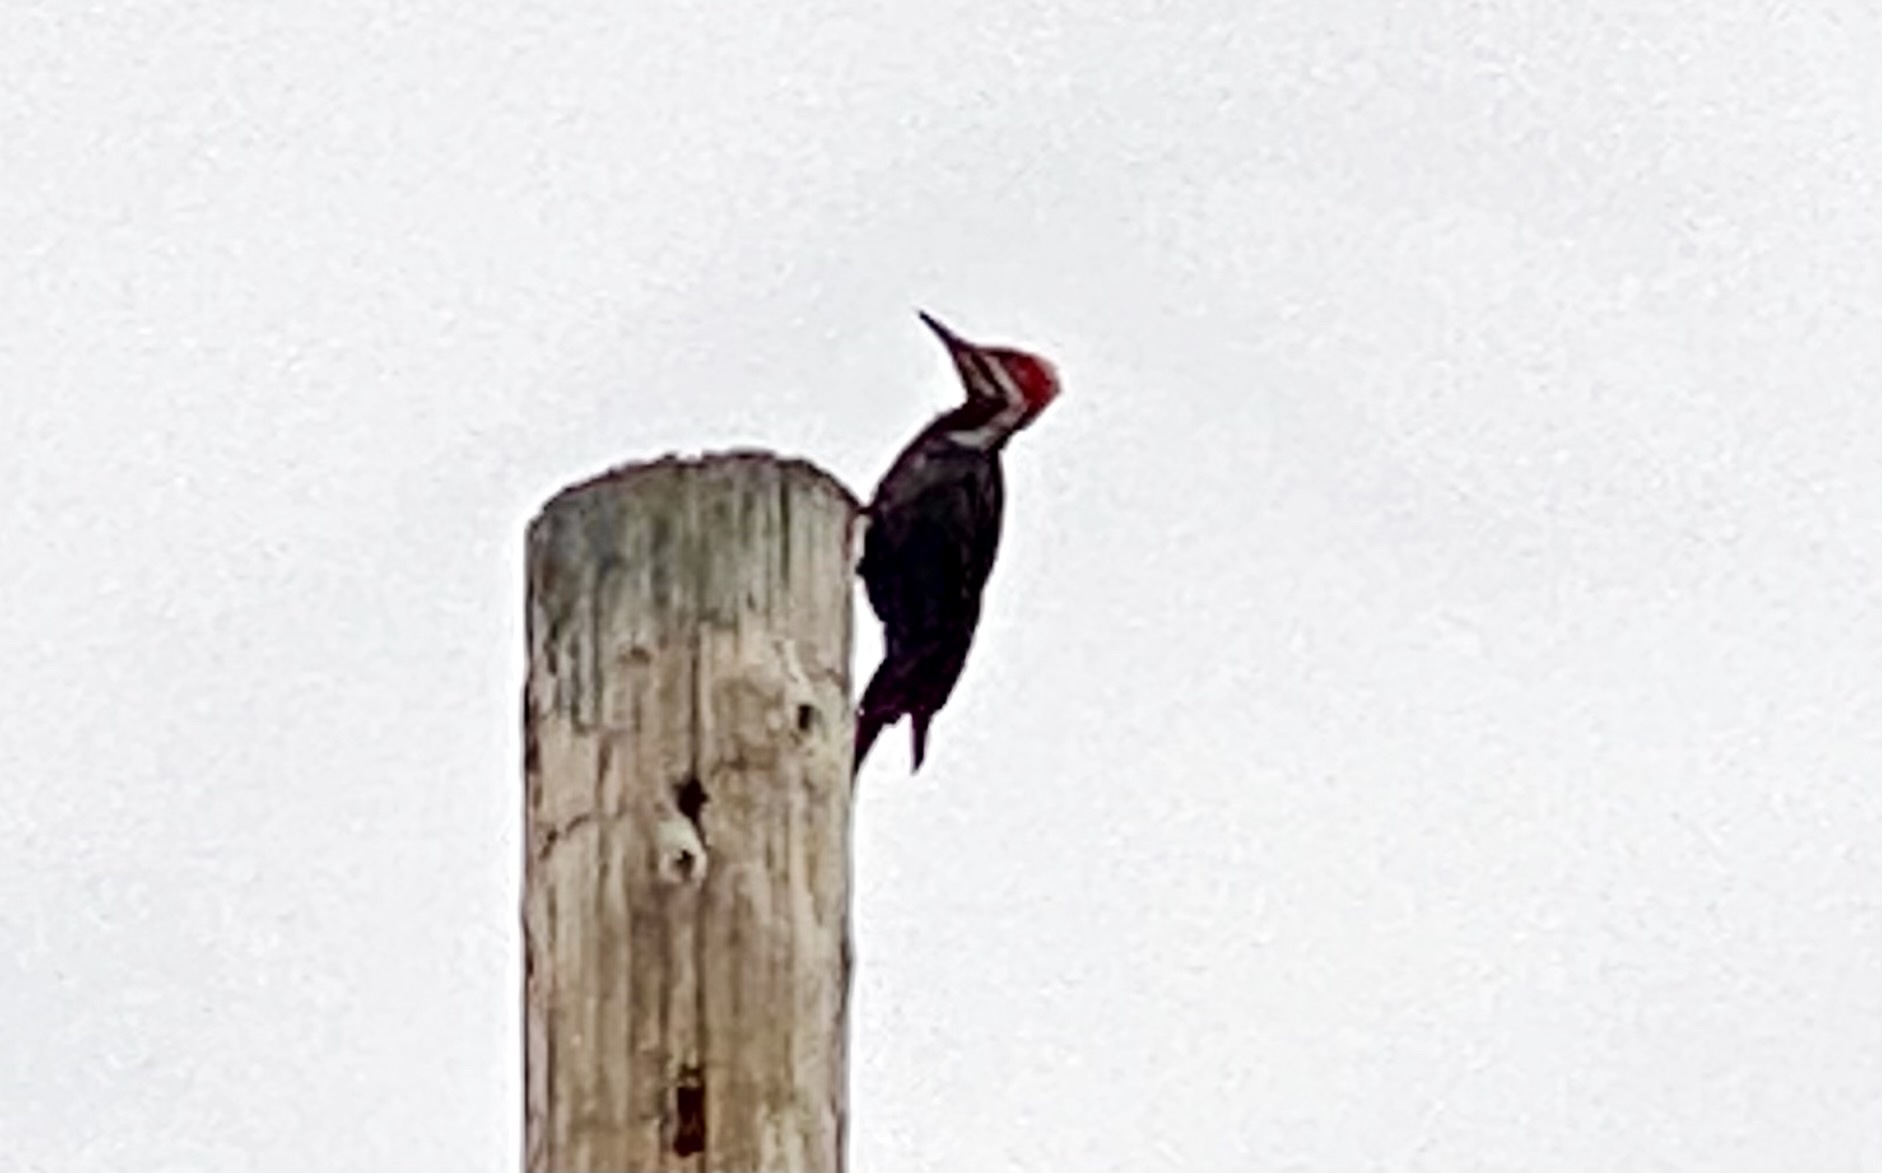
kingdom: Animalia
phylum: Chordata
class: Aves
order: Piciformes
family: Picidae
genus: Dryocopus
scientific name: Dryocopus pileatus
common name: Pileated woodpecker
